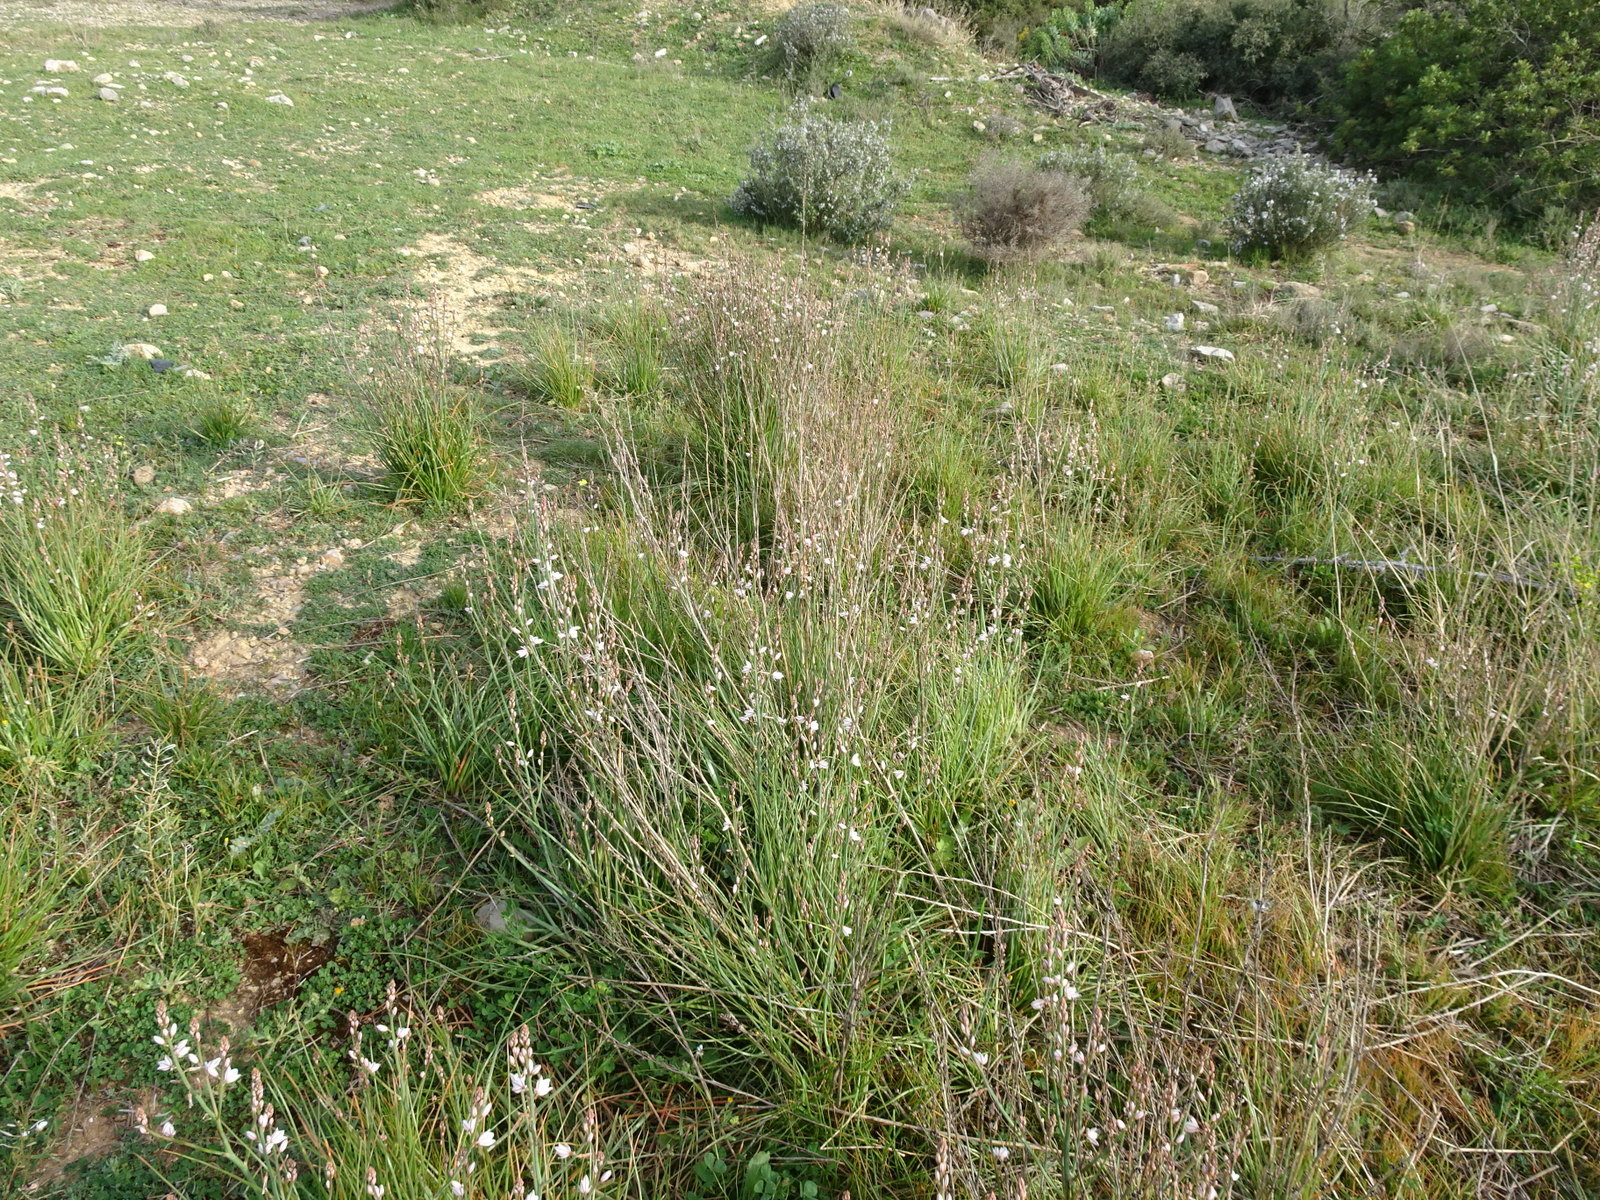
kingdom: Plantae
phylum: Tracheophyta
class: Liliopsida
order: Asparagales
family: Asphodelaceae
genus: Asphodelus
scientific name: Asphodelus fistulosus
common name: Onionweed
